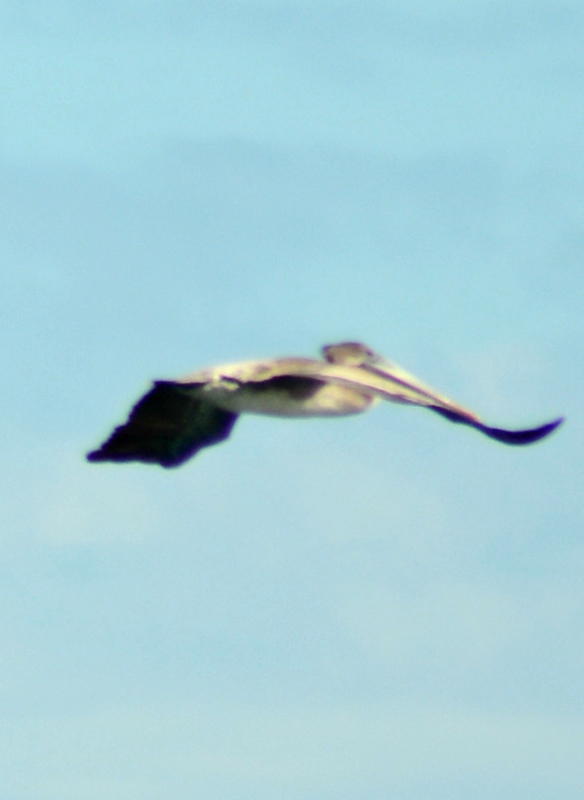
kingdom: Animalia
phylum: Chordata
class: Aves
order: Pelecaniformes
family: Pelecanidae
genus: Pelecanus
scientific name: Pelecanus occidentalis
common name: Brown pelican
